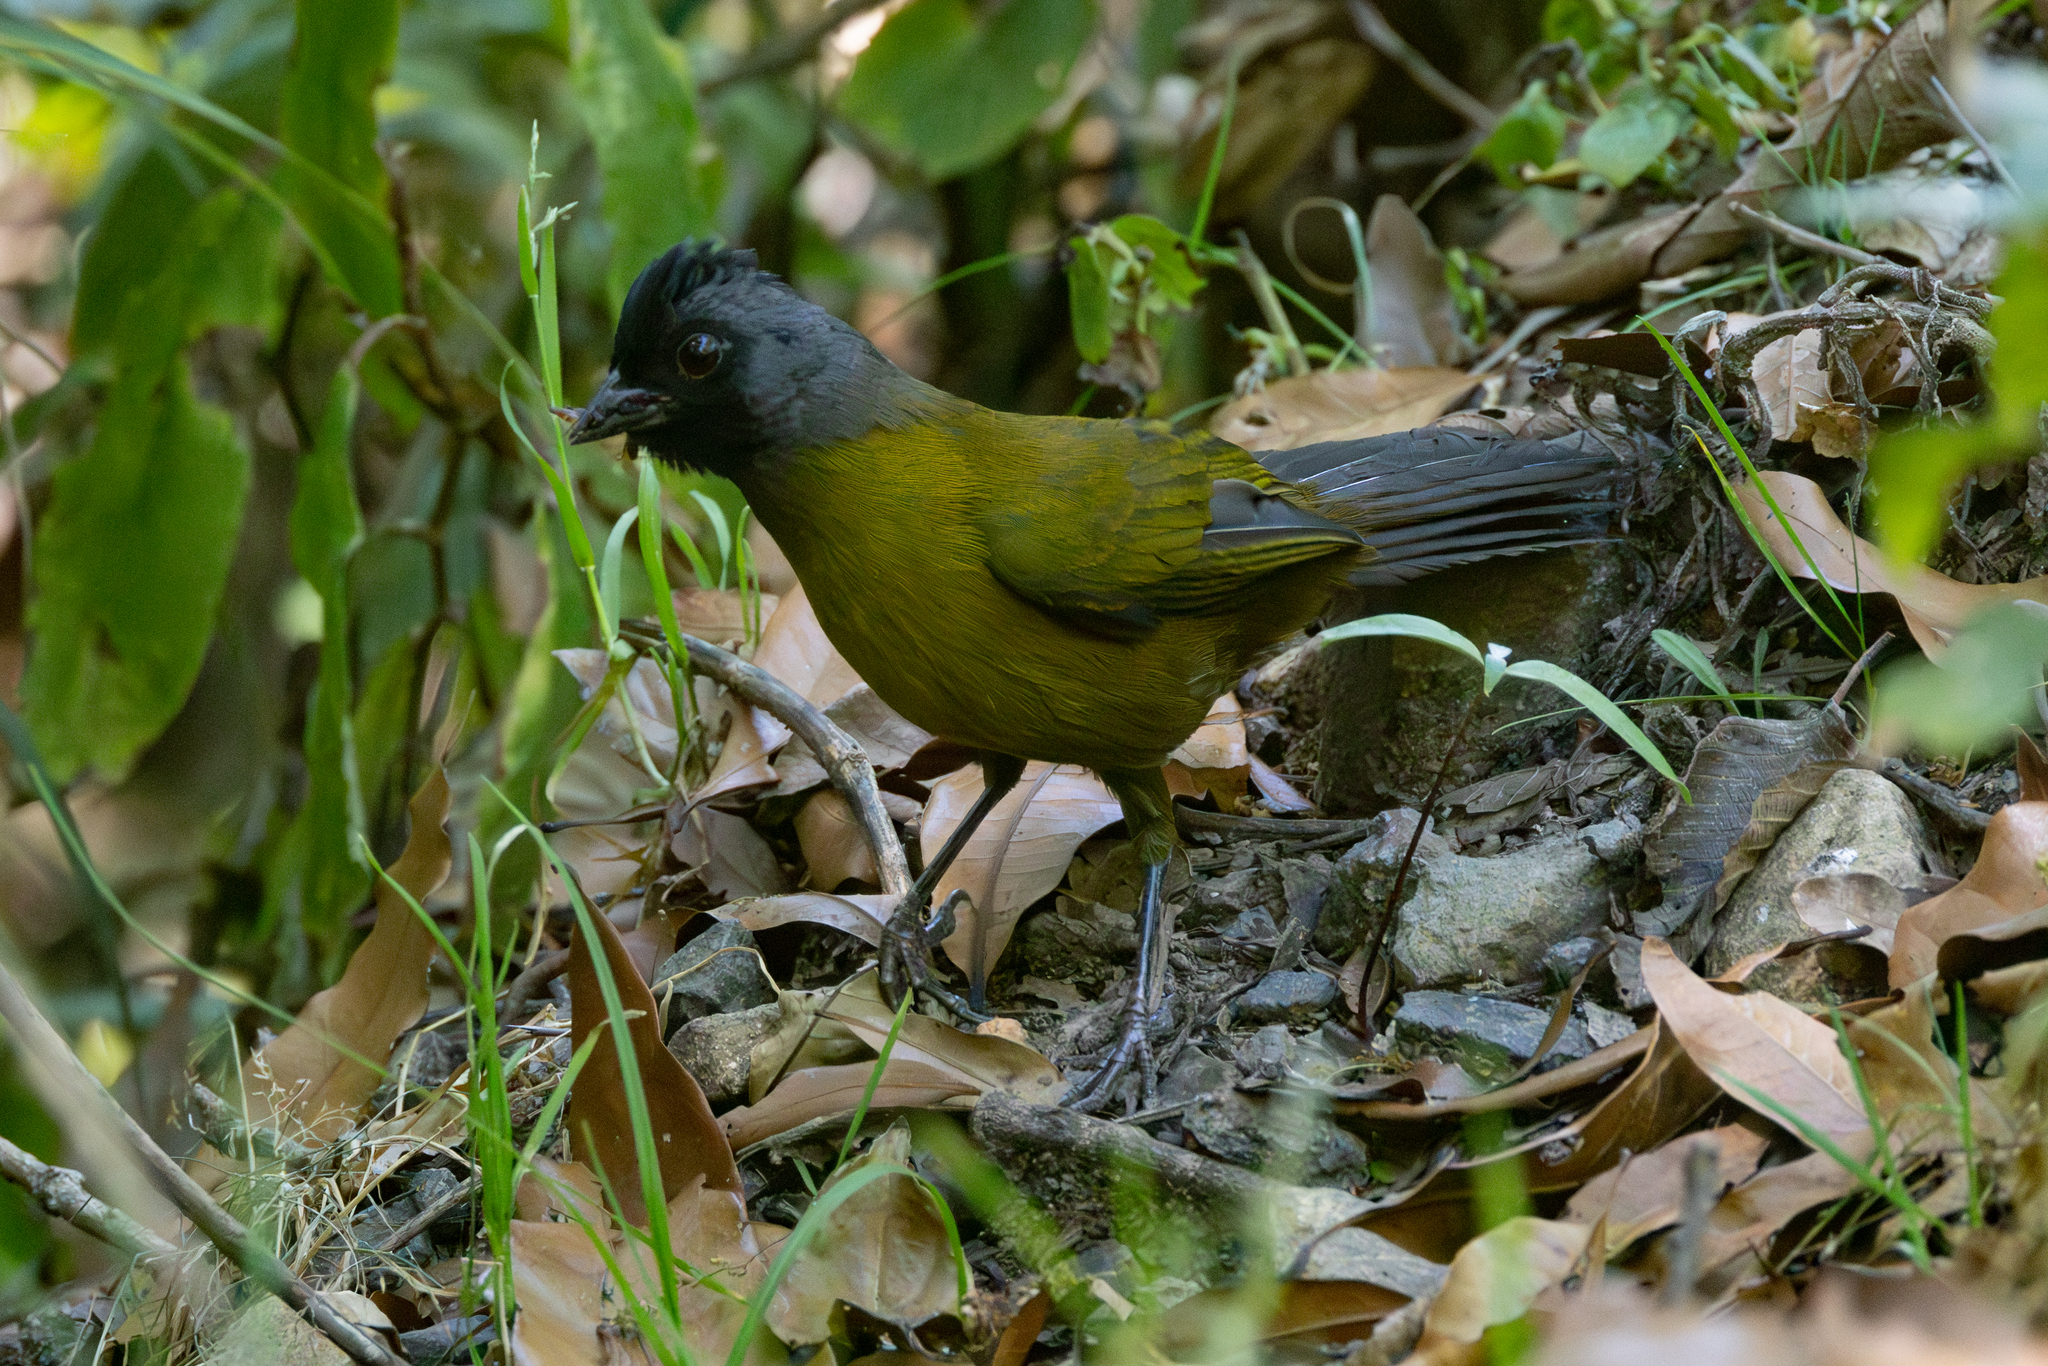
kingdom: Animalia
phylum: Chordata
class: Aves
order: Passeriformes
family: Passerellidae
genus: Pezopetes
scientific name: Pezopetes capitalis
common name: Large-footed finch
